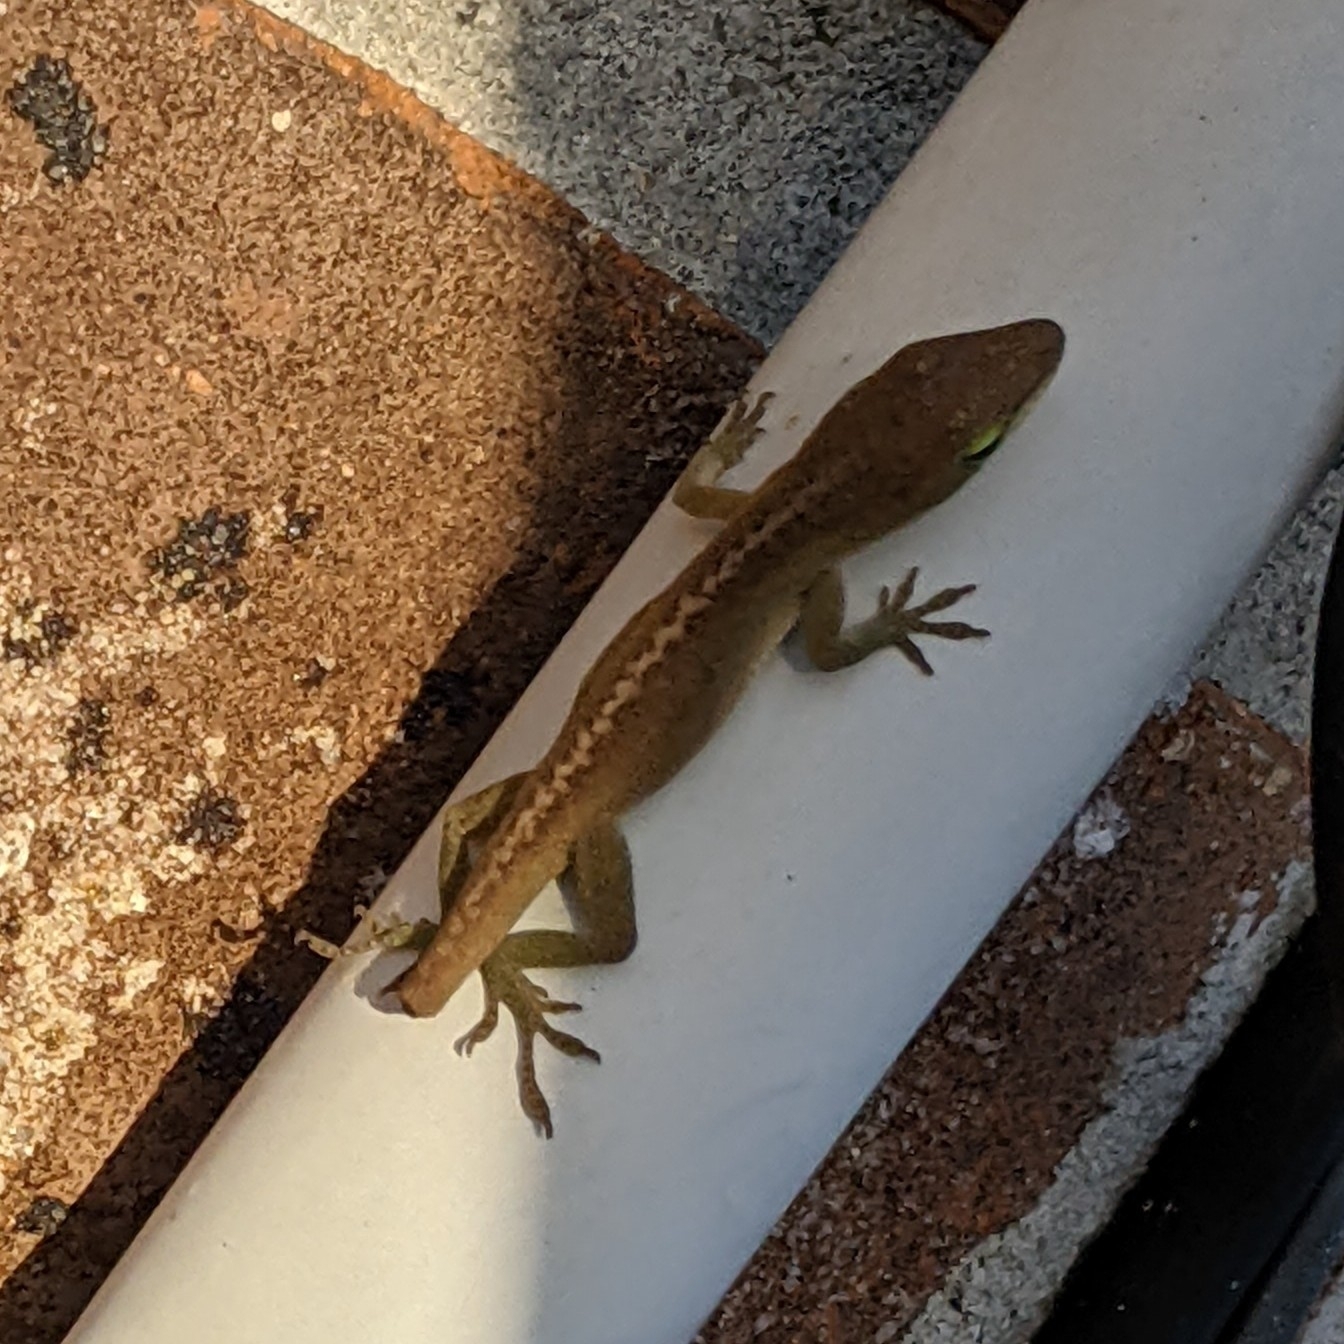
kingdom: Animalia
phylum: Chordata
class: Squamata
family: Dactyloidae
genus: Anolis
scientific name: Anolis carolinensis
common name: Green anole
